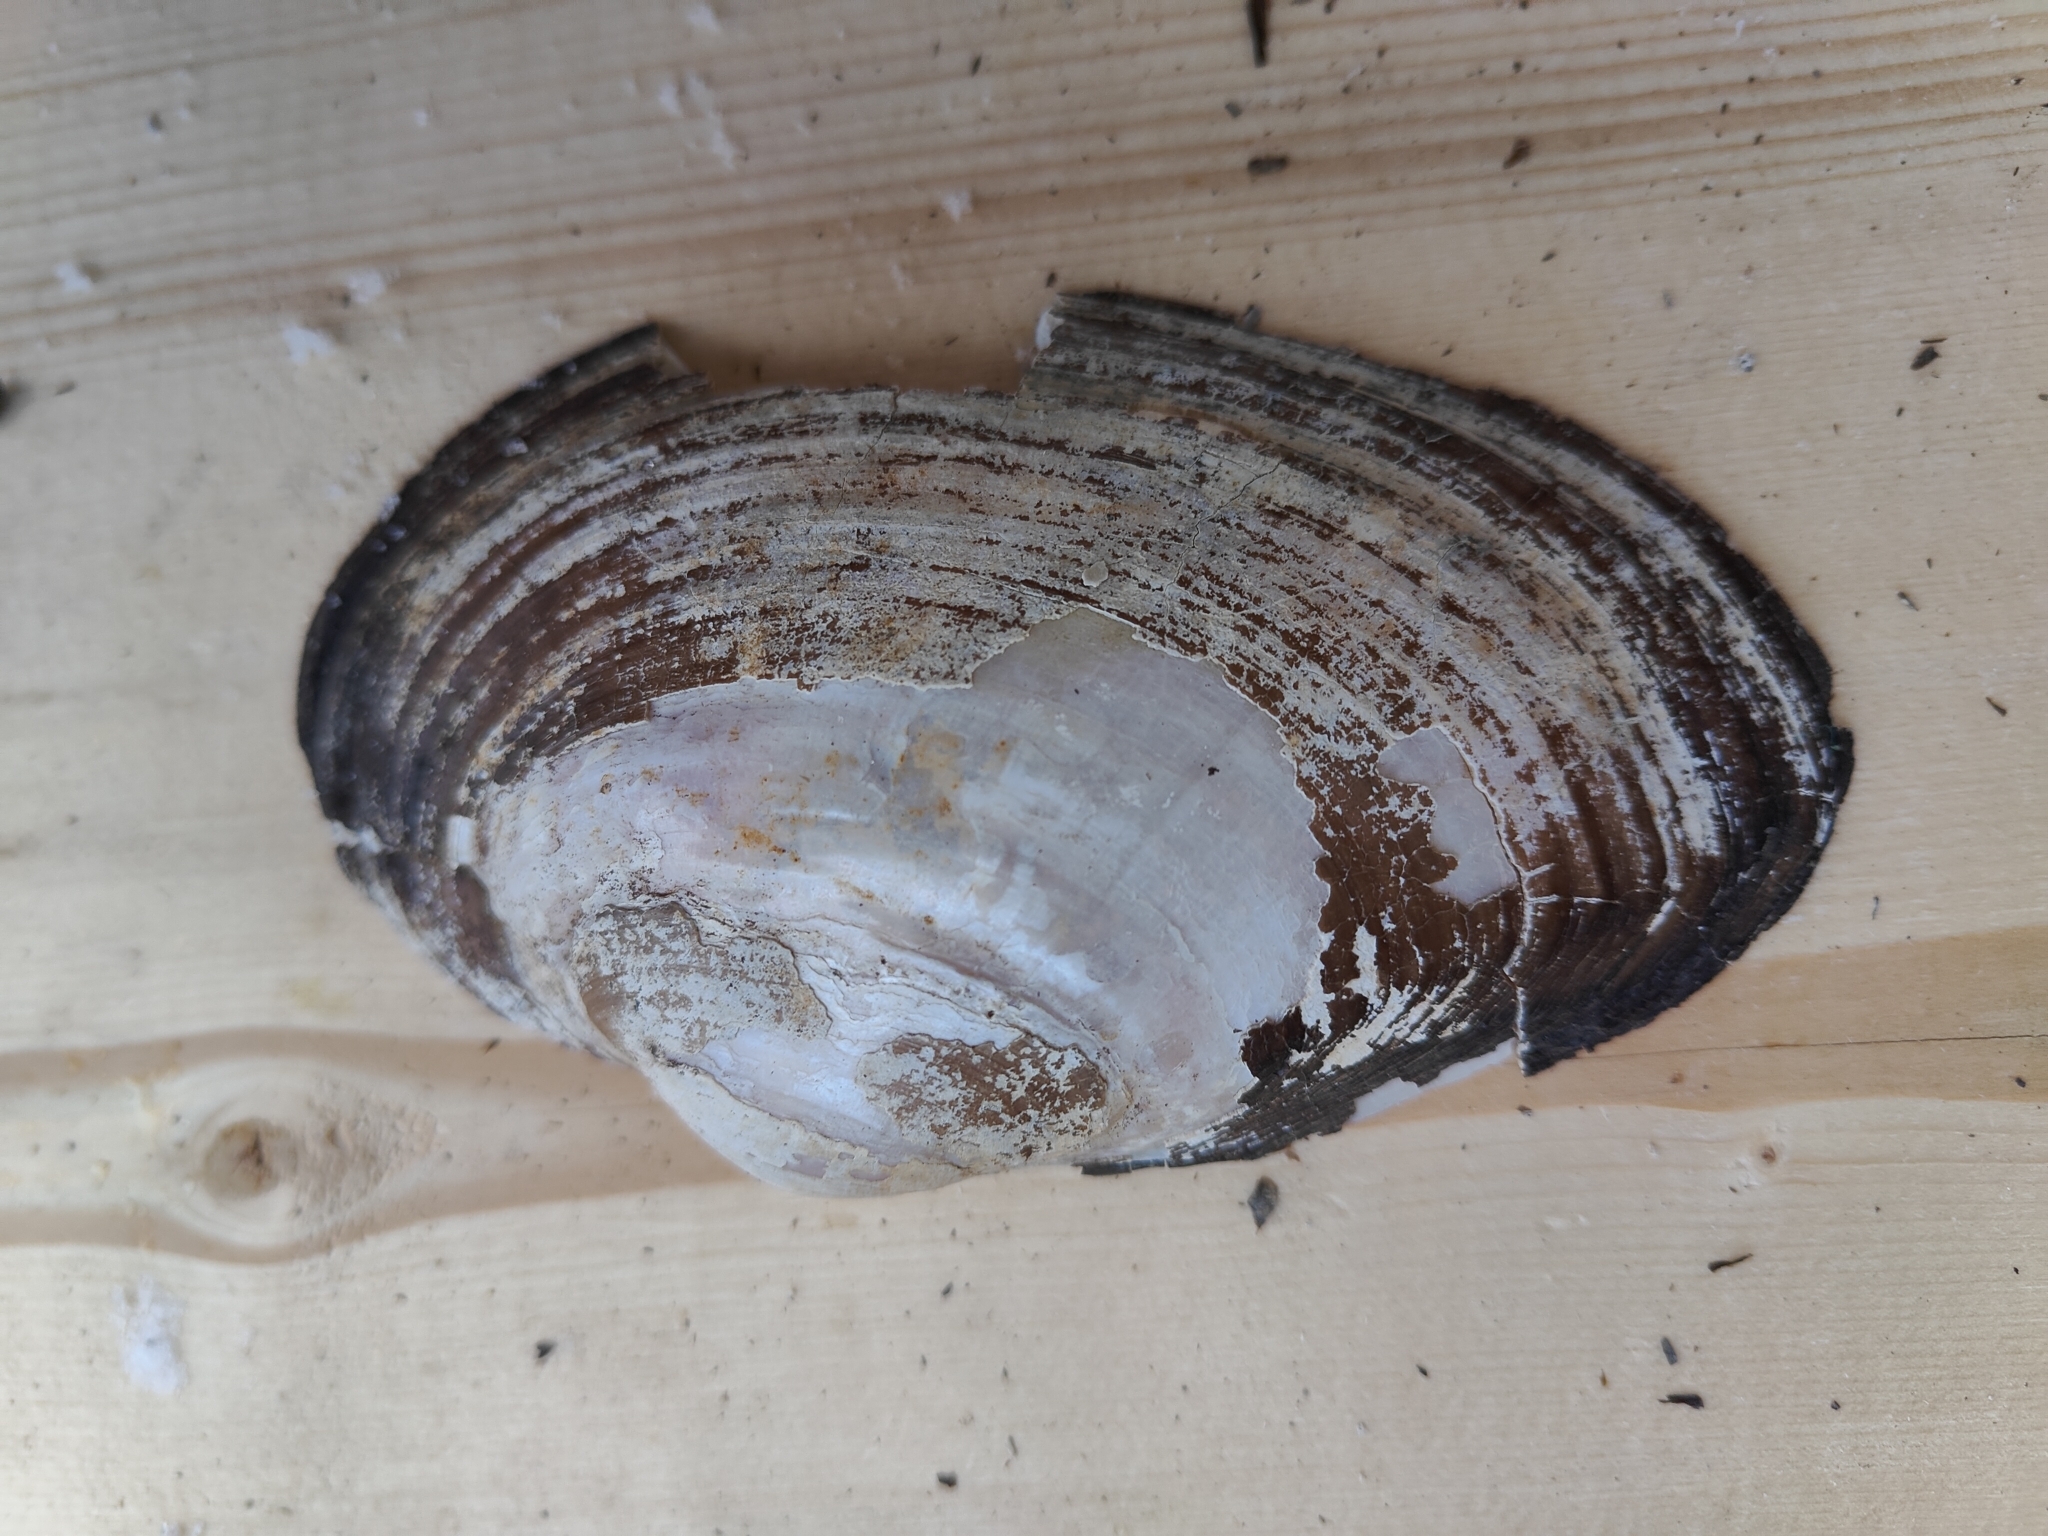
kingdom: Animalia
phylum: Mollusca
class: Bivalvia
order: Unionida
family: Unionidae
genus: Pyganodon
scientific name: Pyganodon grandis
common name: Giant floater
